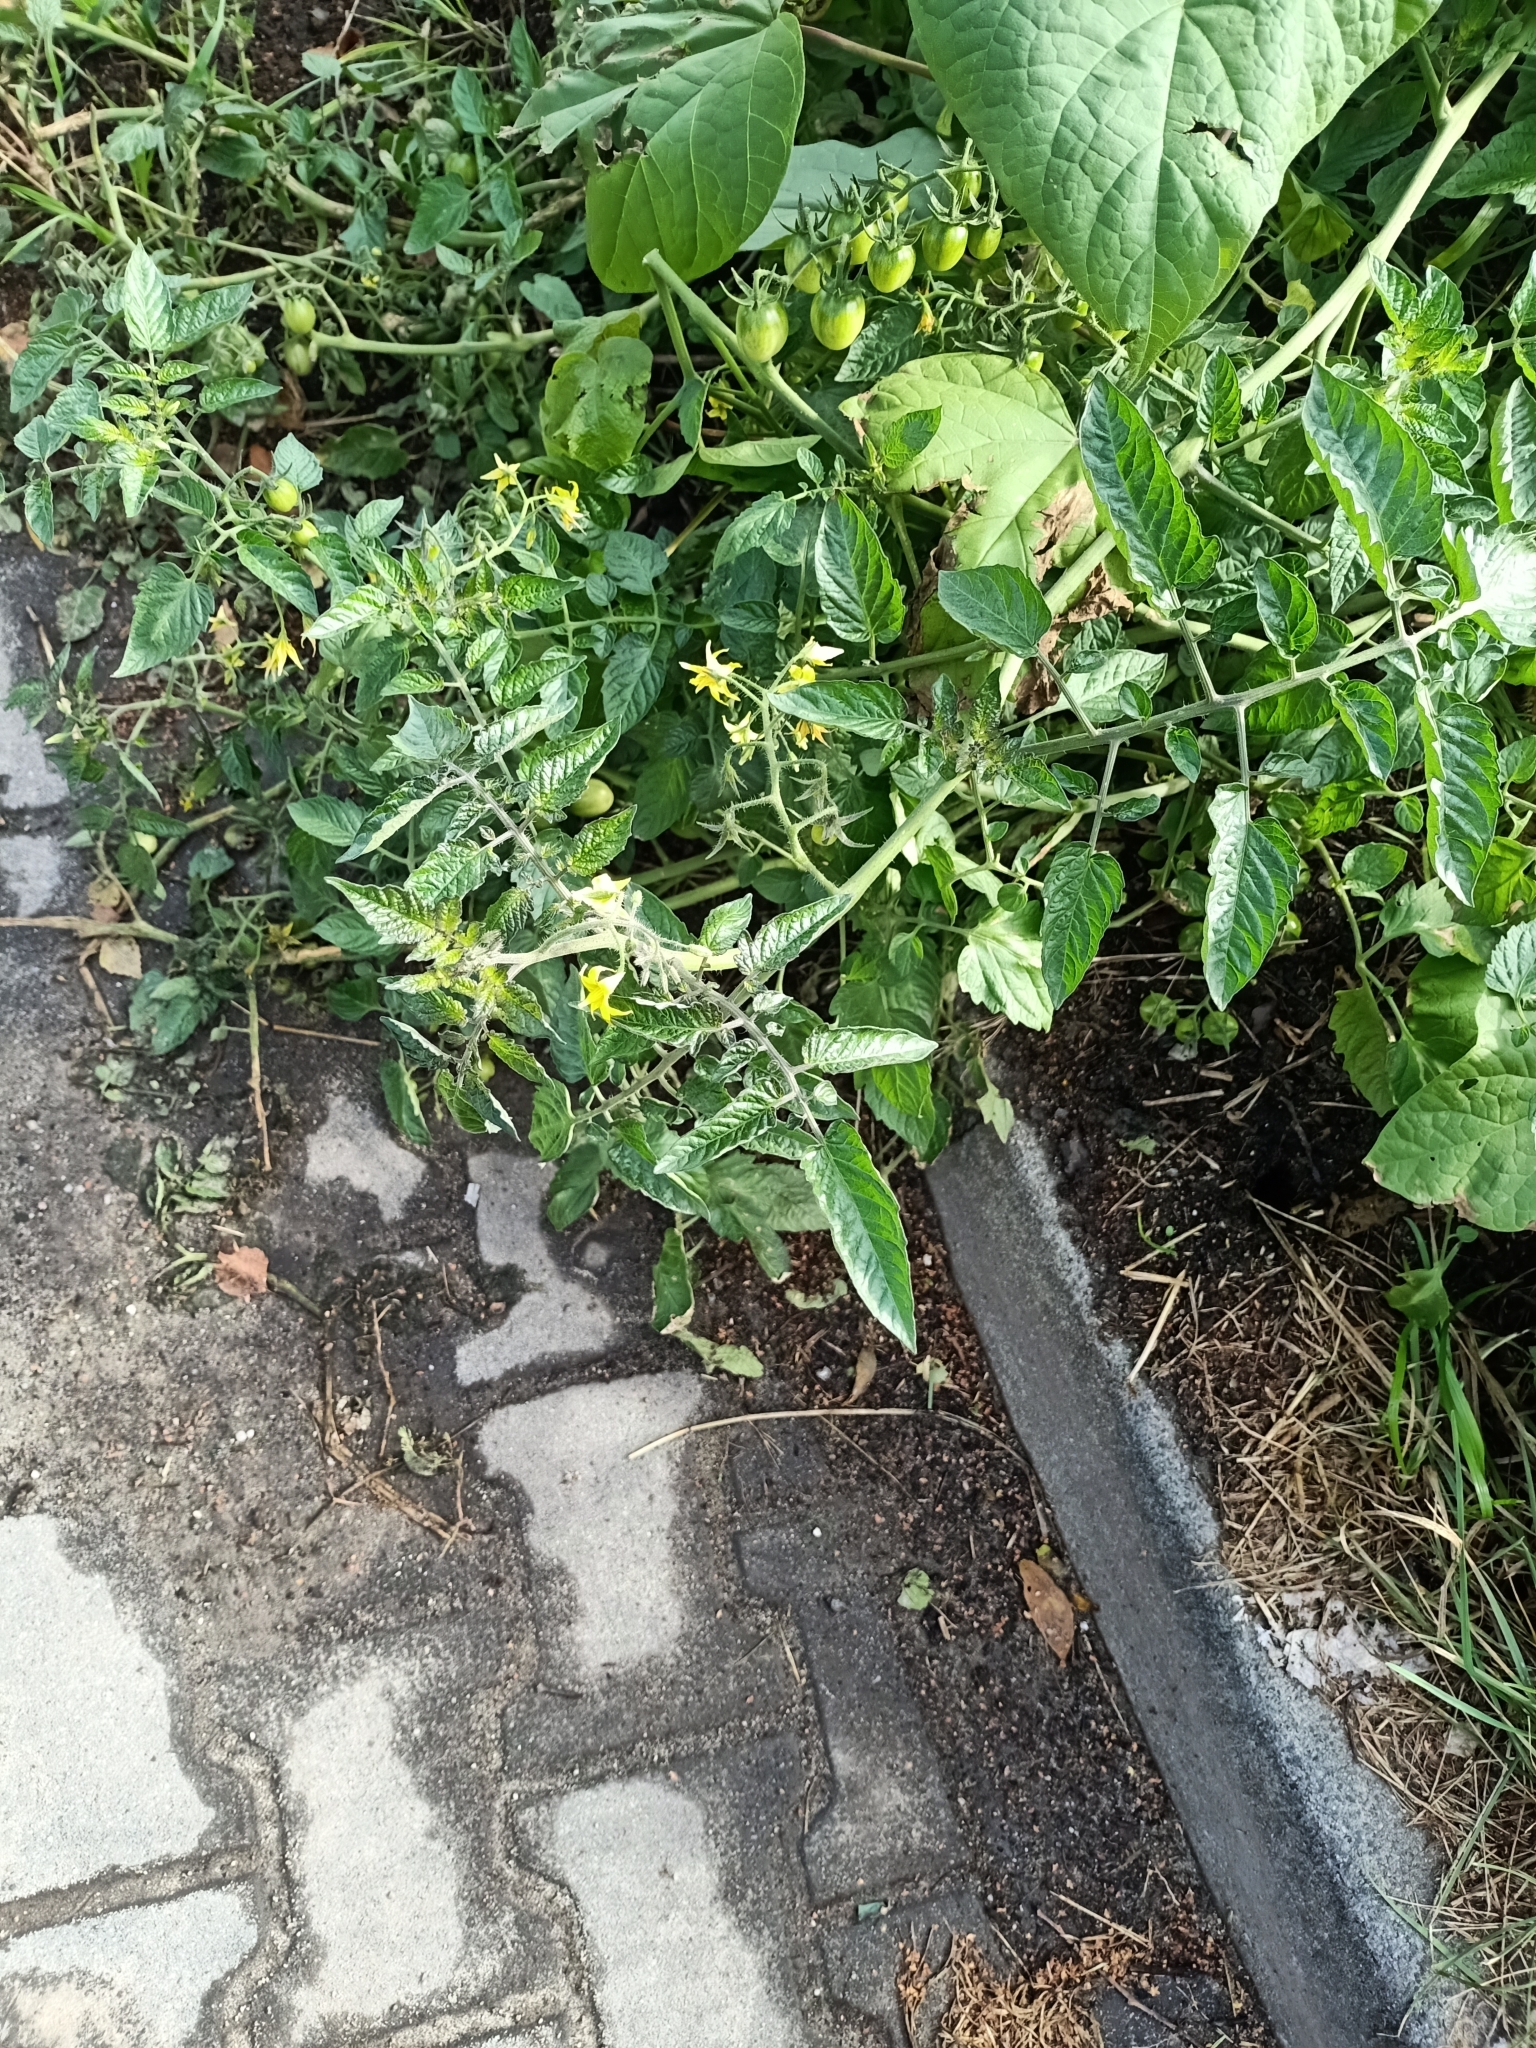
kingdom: Plantae
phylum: Tracheophyta
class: Magnoliopsida
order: Solanales
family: Solanaceae
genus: Solanum
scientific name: Solanum lycopersicum
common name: Garden tomato
